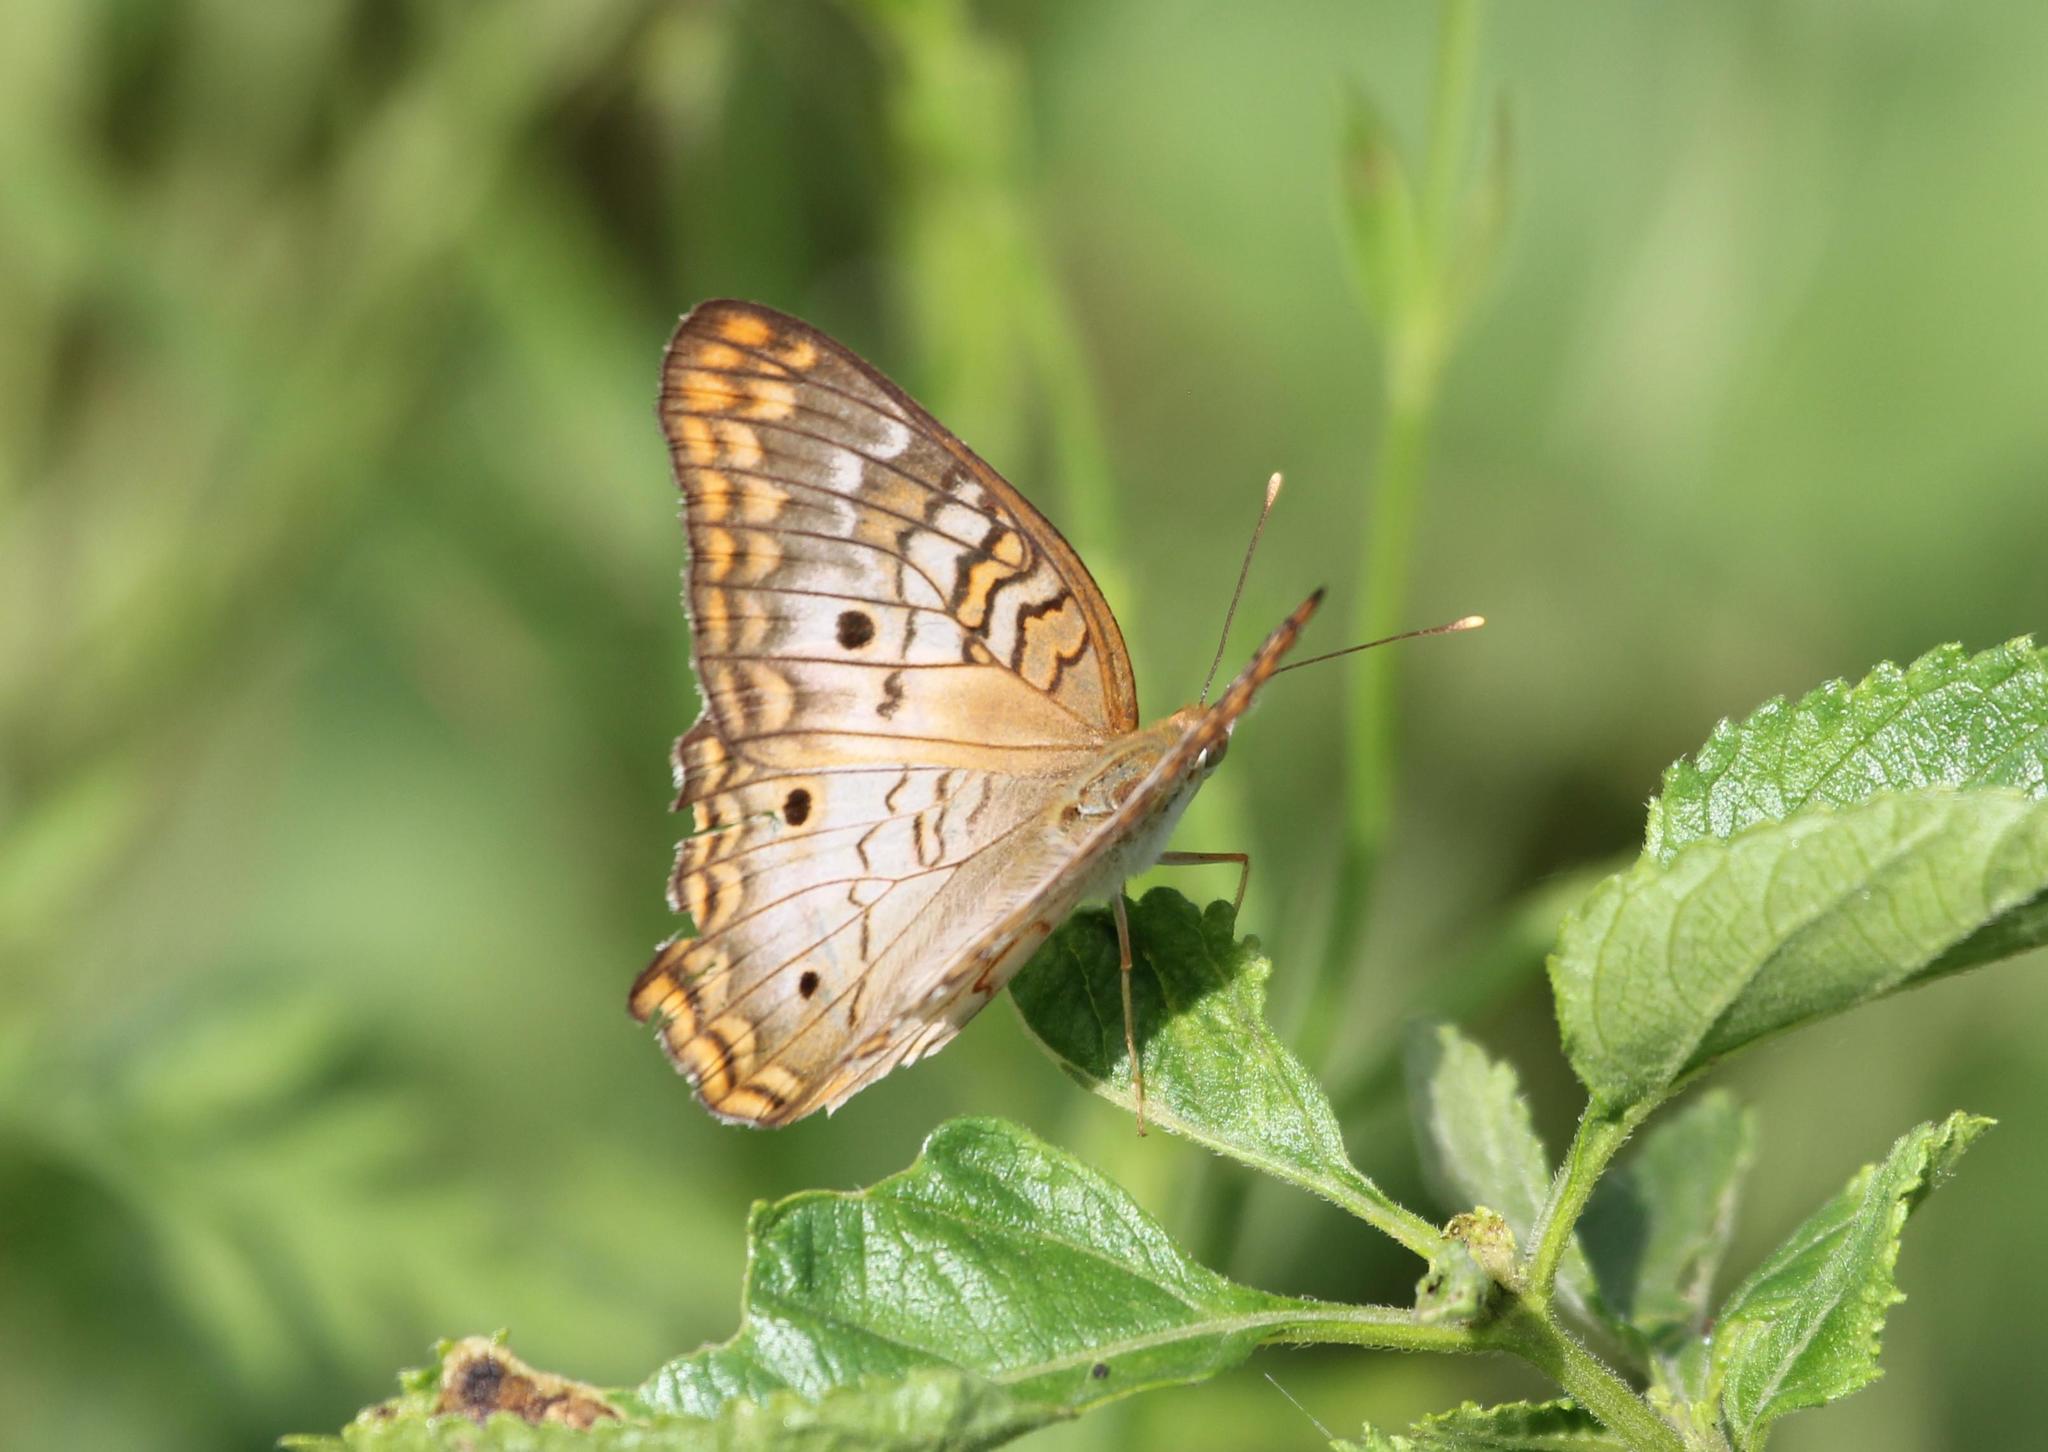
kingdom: Animalia
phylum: Arthropoda
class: Insecta
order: Lepidoptera
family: Nymphalidae
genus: Anartia
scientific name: Anartia jatrophae
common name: White peacock
